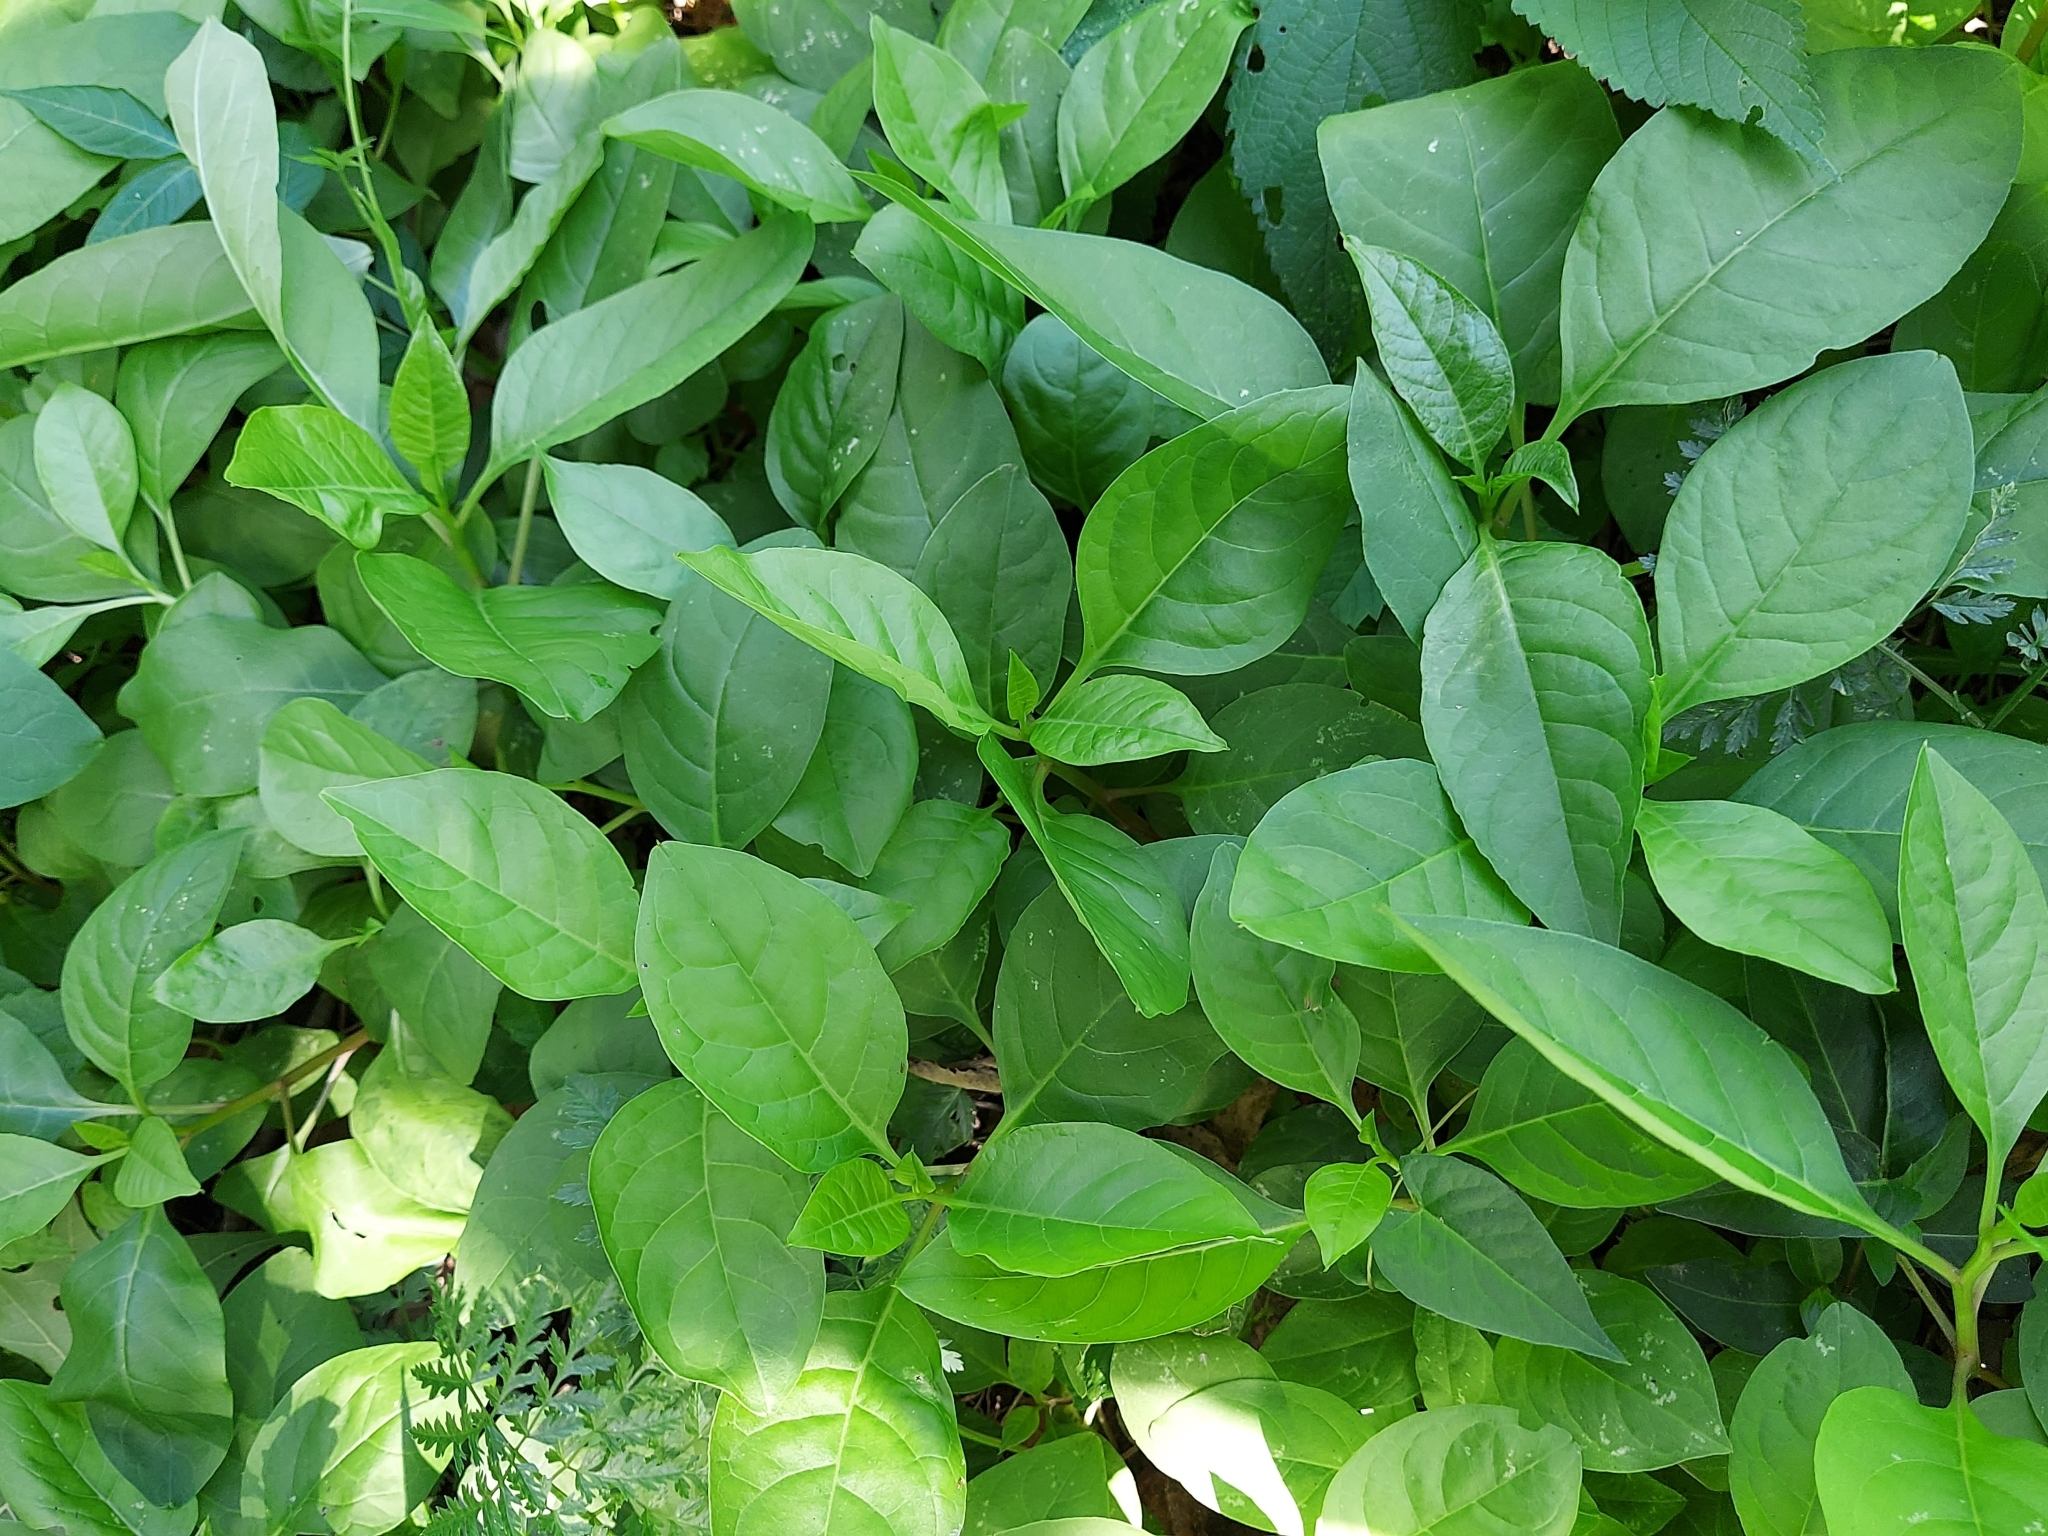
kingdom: Plantae
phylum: Tracheophyta
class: Magnoliopsida
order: Caryophyllales
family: Phytolaccaceae
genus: Phytolacca
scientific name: Phytolacca americana
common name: American pokeweed
